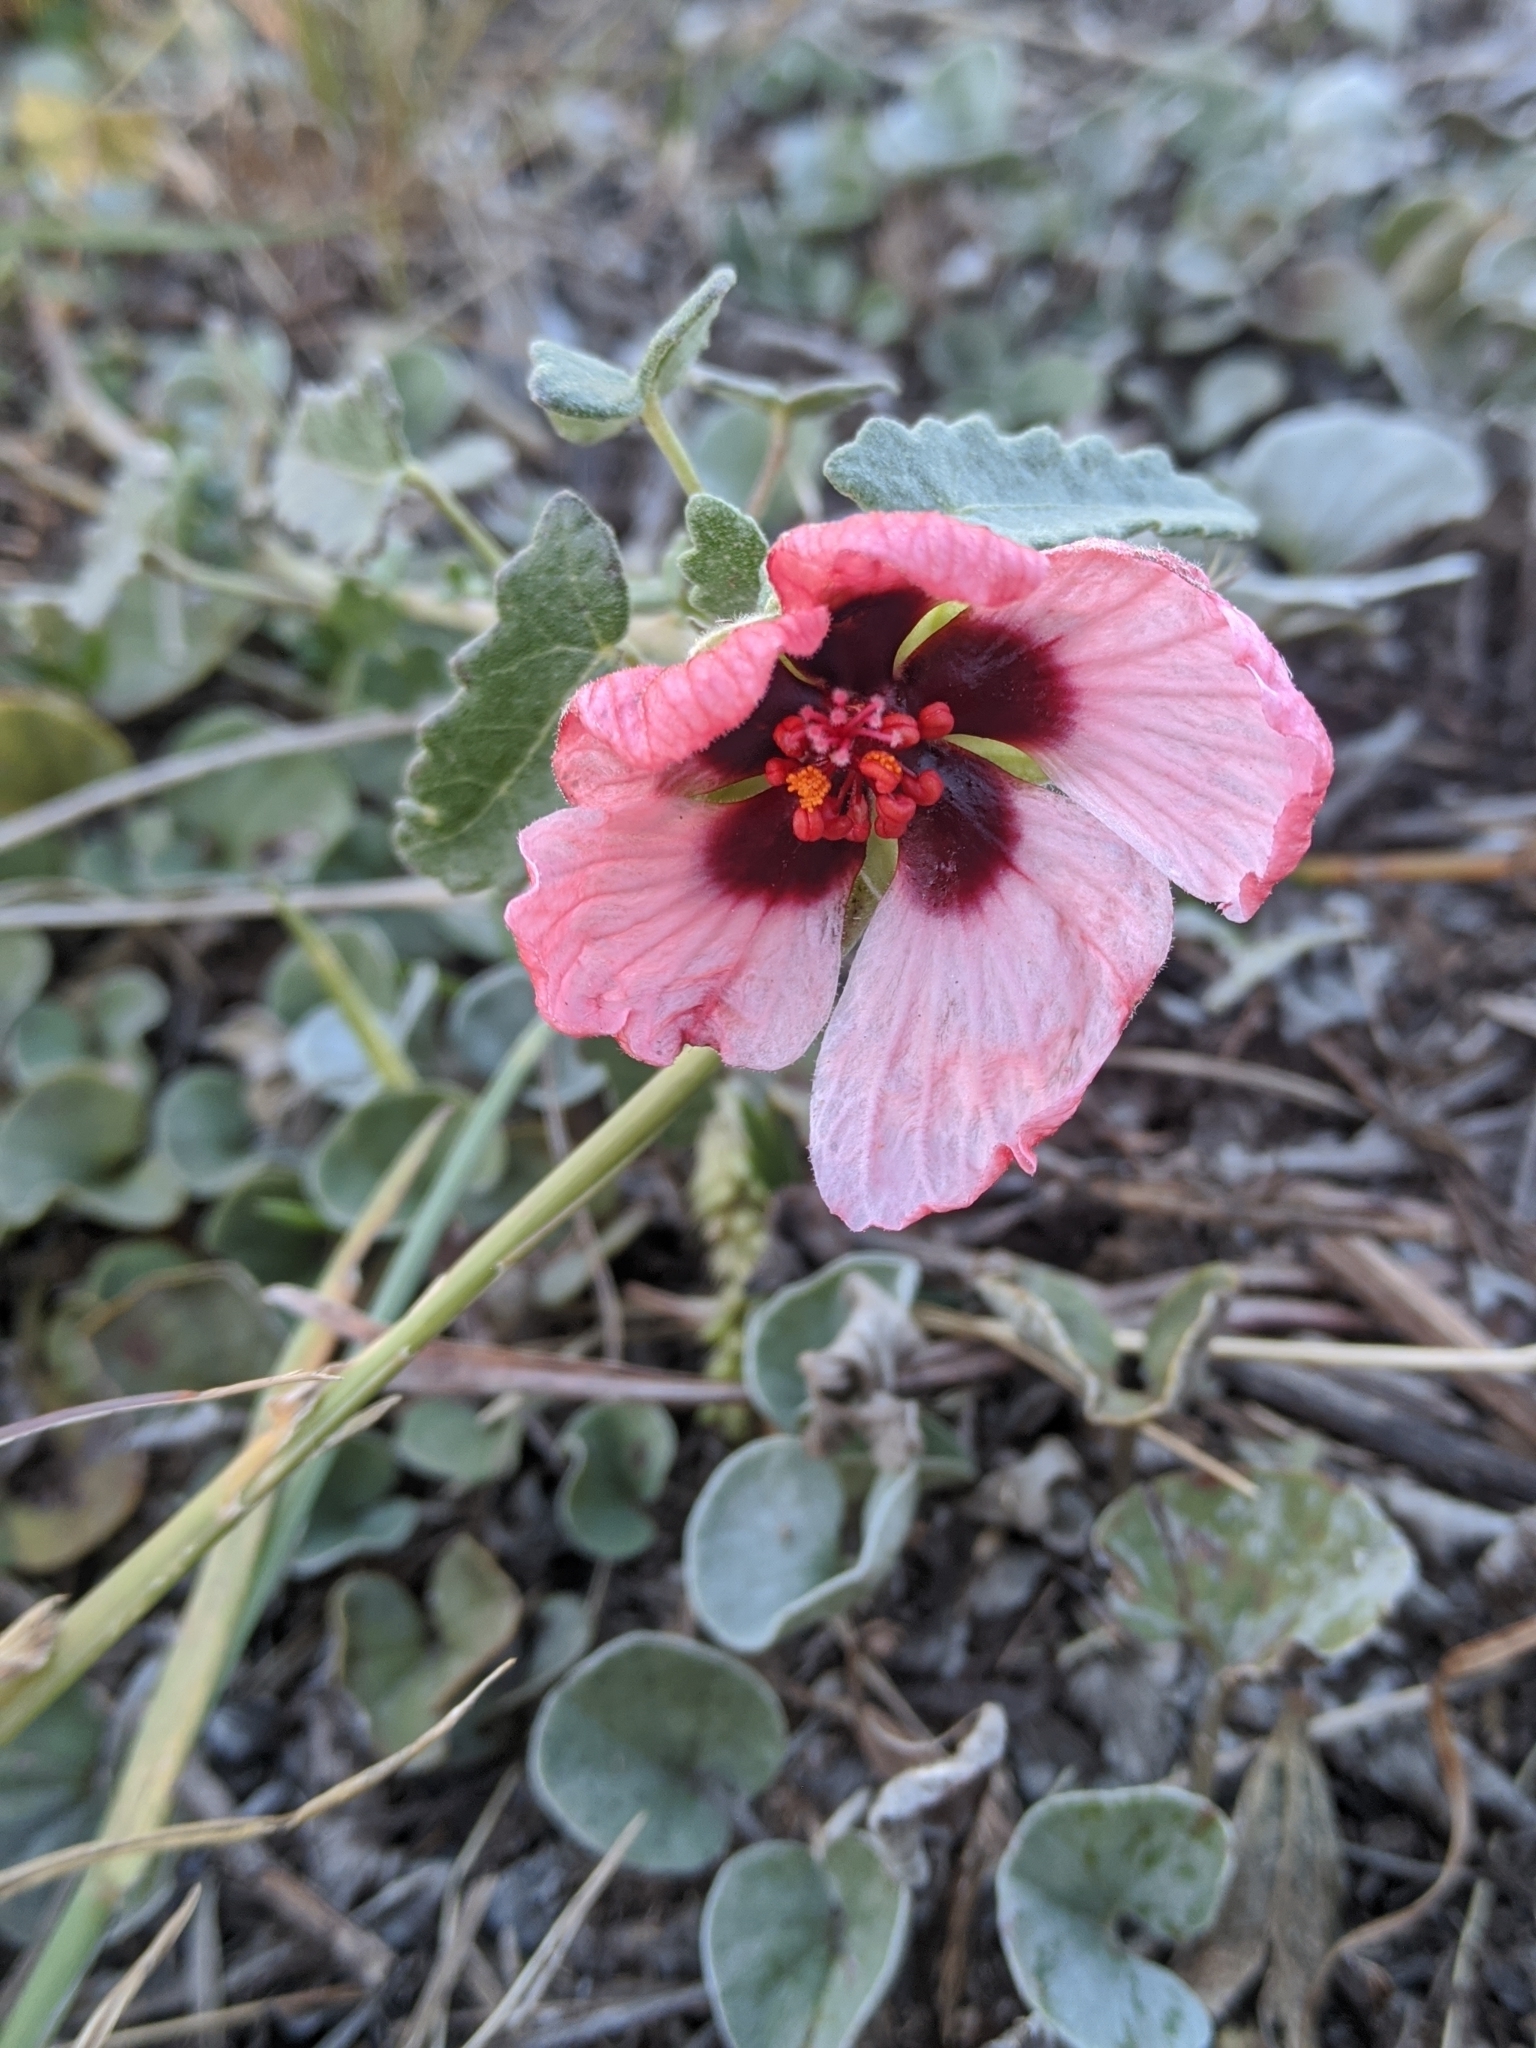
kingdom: Plantae
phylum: Tracheophyta
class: Magnoliopsida
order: Malvales
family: Malvaceae
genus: Pavonia
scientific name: Pavonia revoluta
